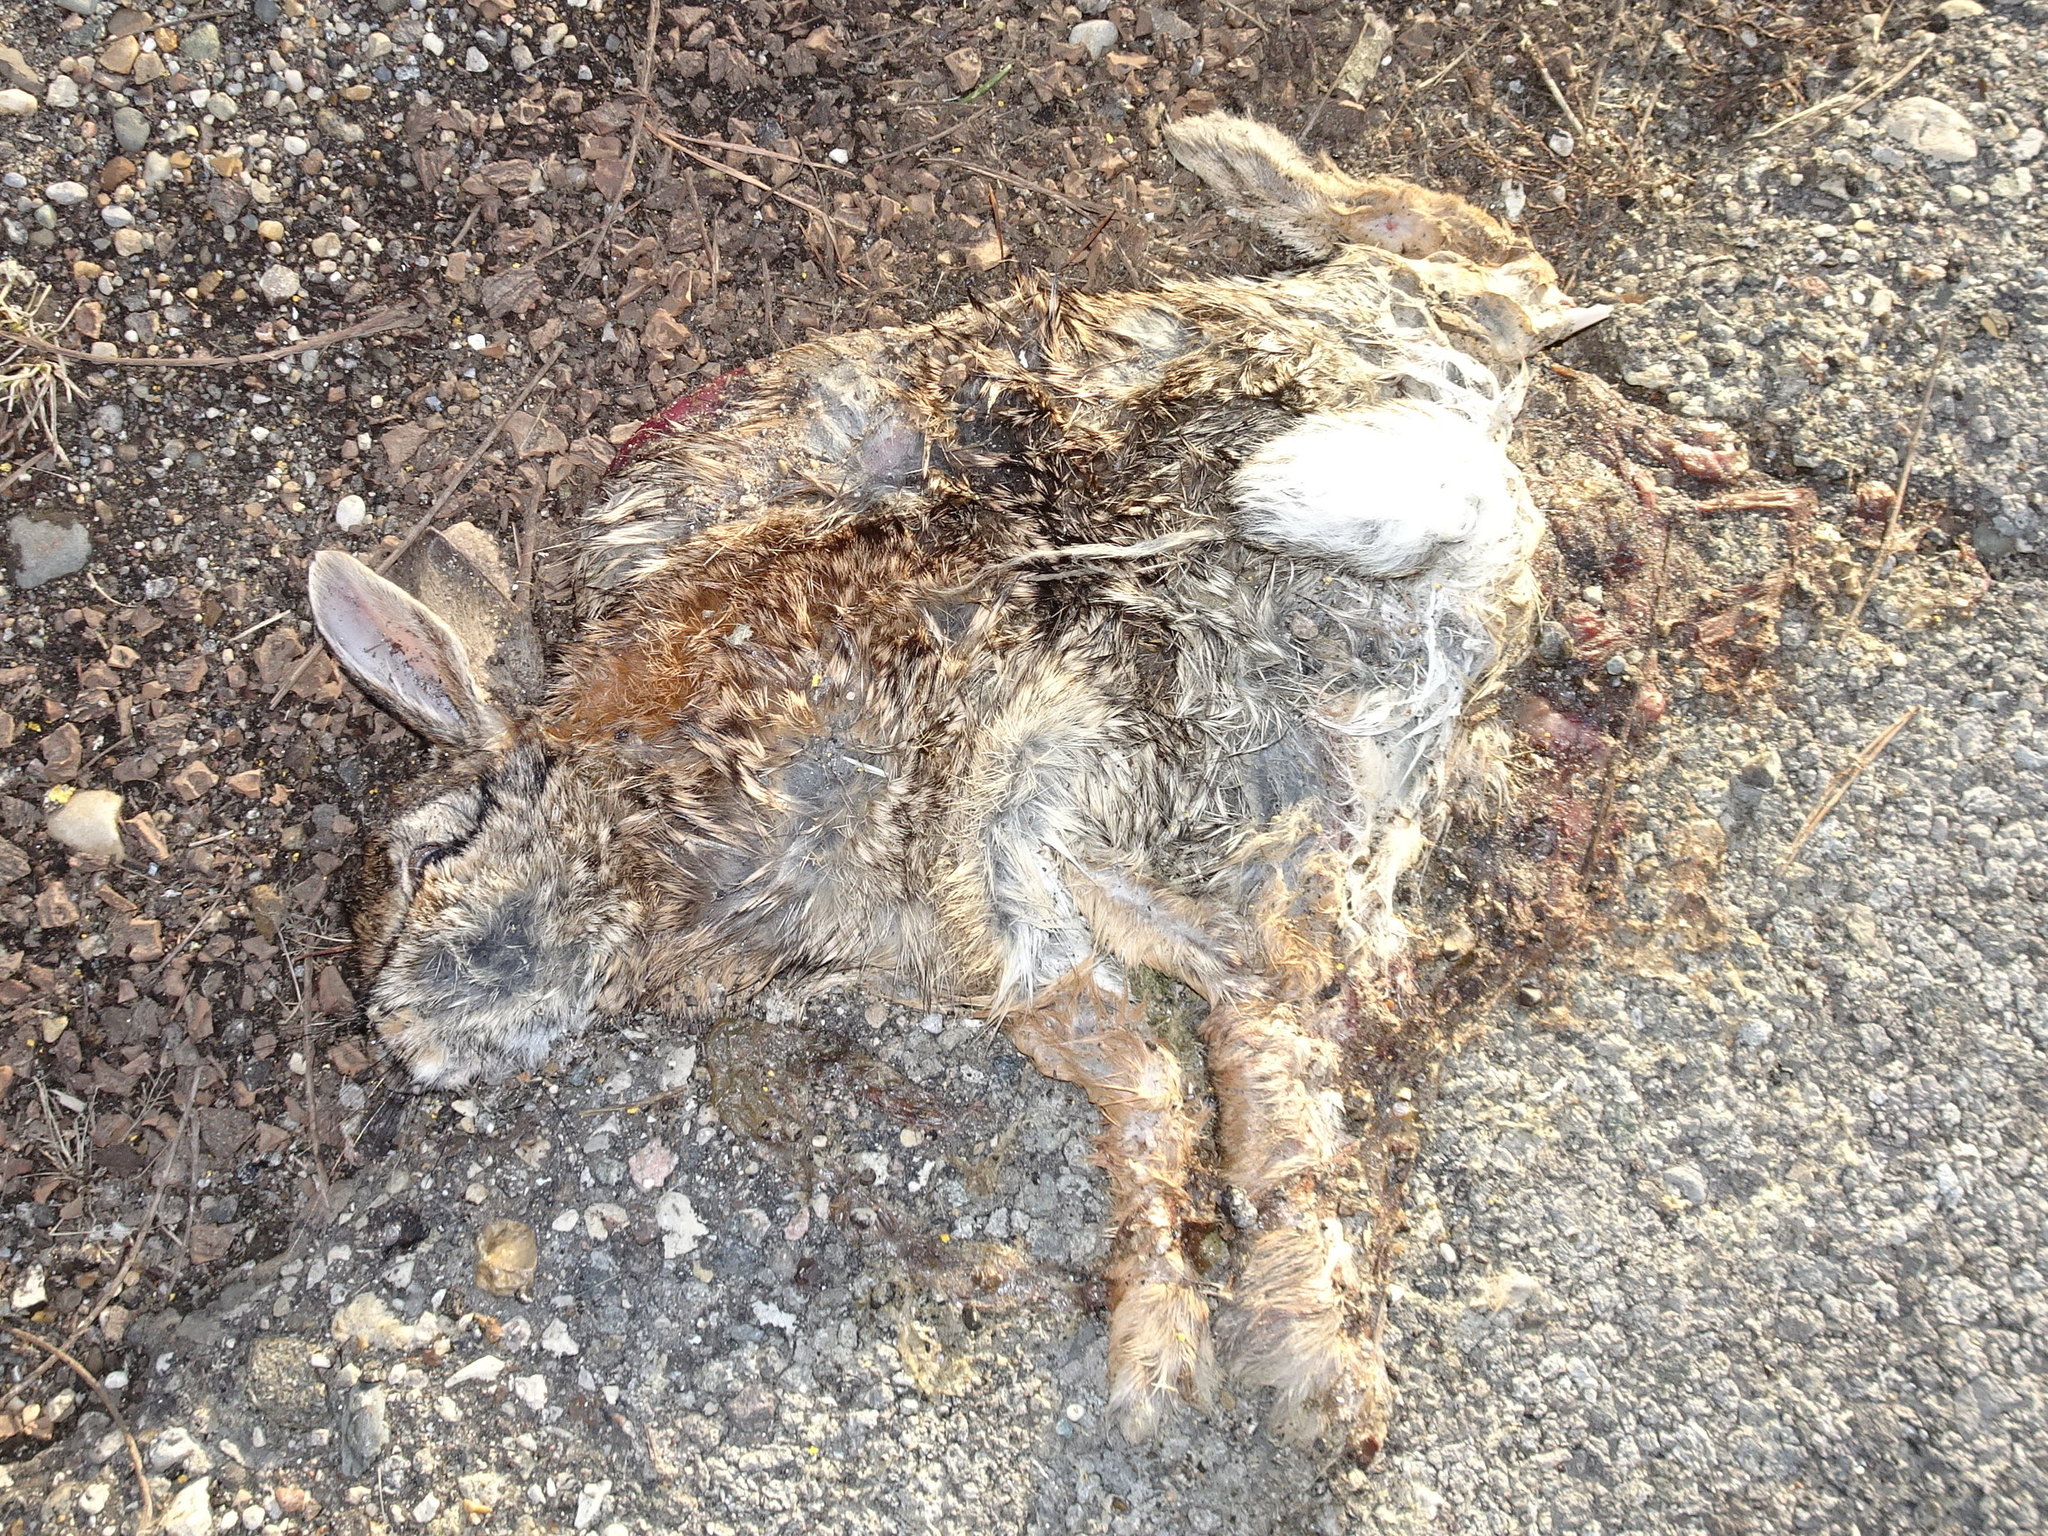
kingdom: Animalia
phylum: Chordata
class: Mammalia
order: Lagomorpha
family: Leporidae
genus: Sylvilagus
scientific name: Sylvilagus floridanus
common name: Eastern cottontail
